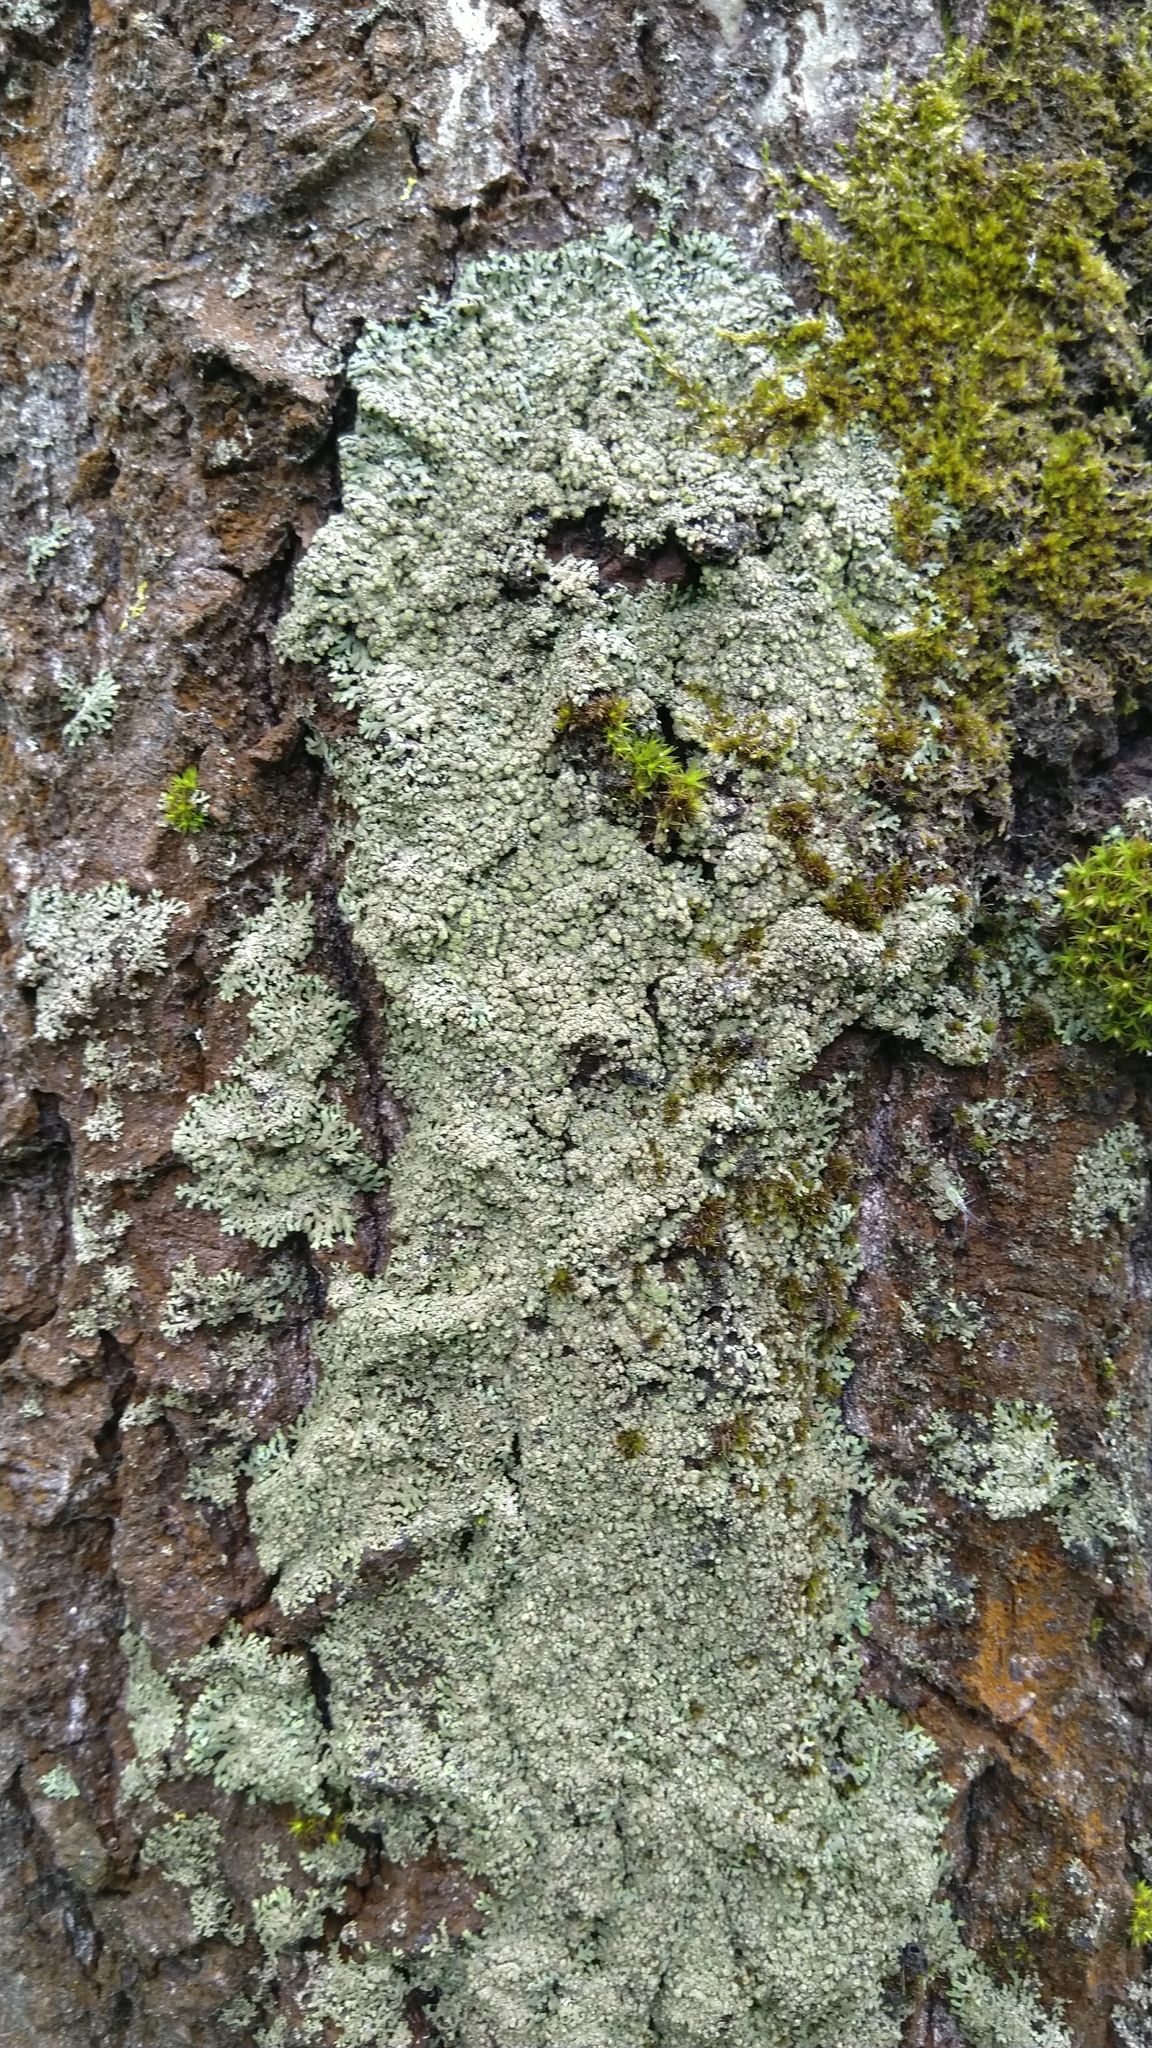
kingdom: Fungi
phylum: Ascomycota
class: Lecanoromycetes
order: Caliciales
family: Physciaceae
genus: Phaeophyscia
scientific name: Phaeophyscia orbicularis
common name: Mealy shadow lichen
